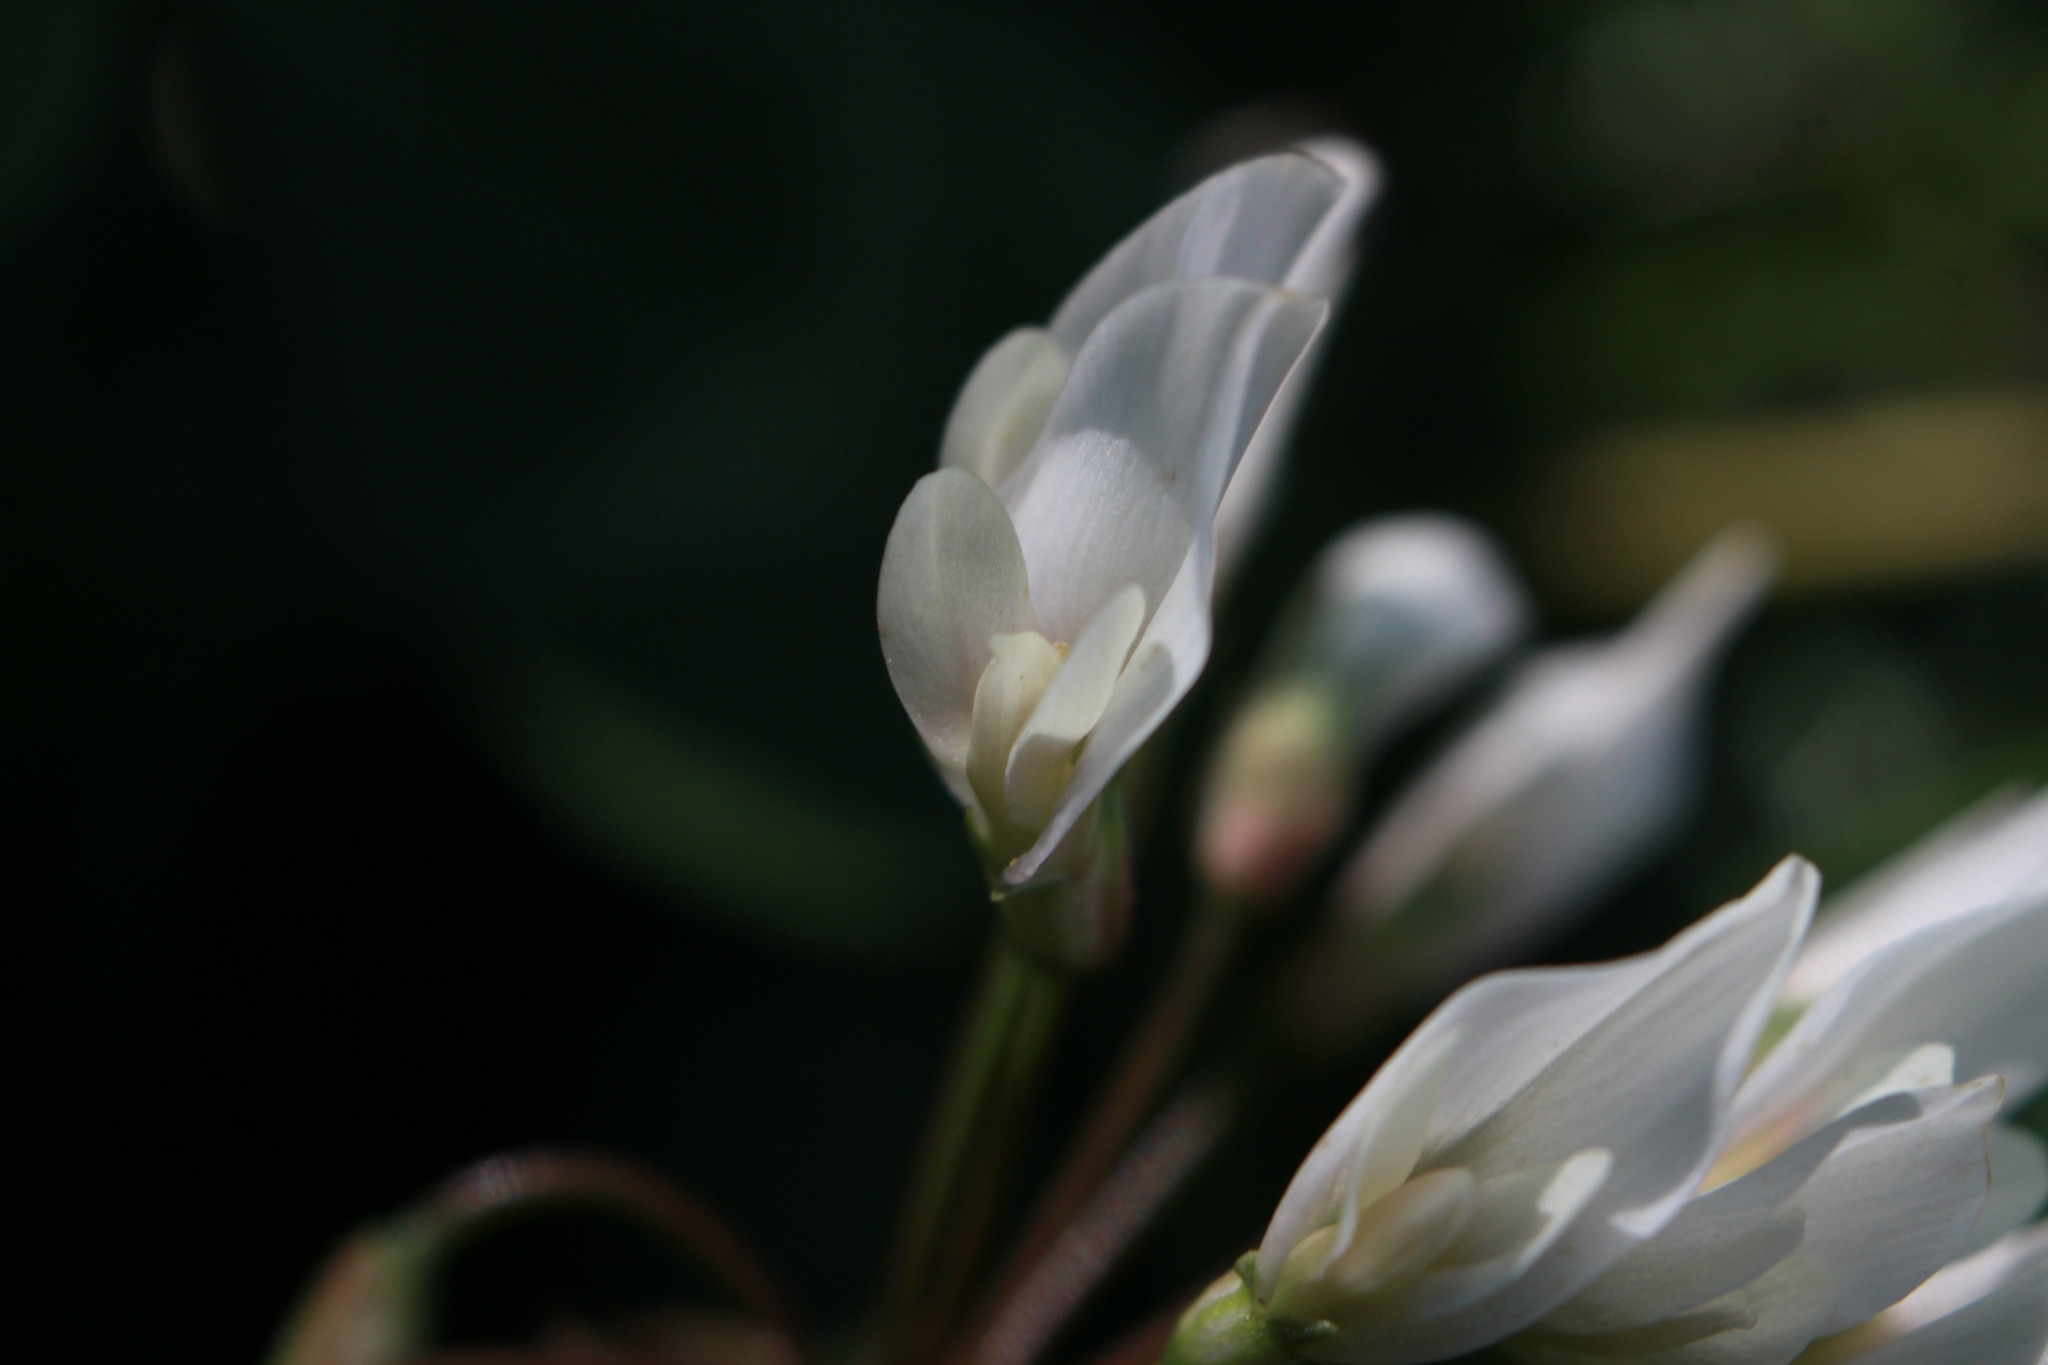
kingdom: Plantae
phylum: Tracheophyta
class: Magnoliopsida
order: Fabales
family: Fabaceae
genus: Trifolium
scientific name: Trifolium repens
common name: White clover
